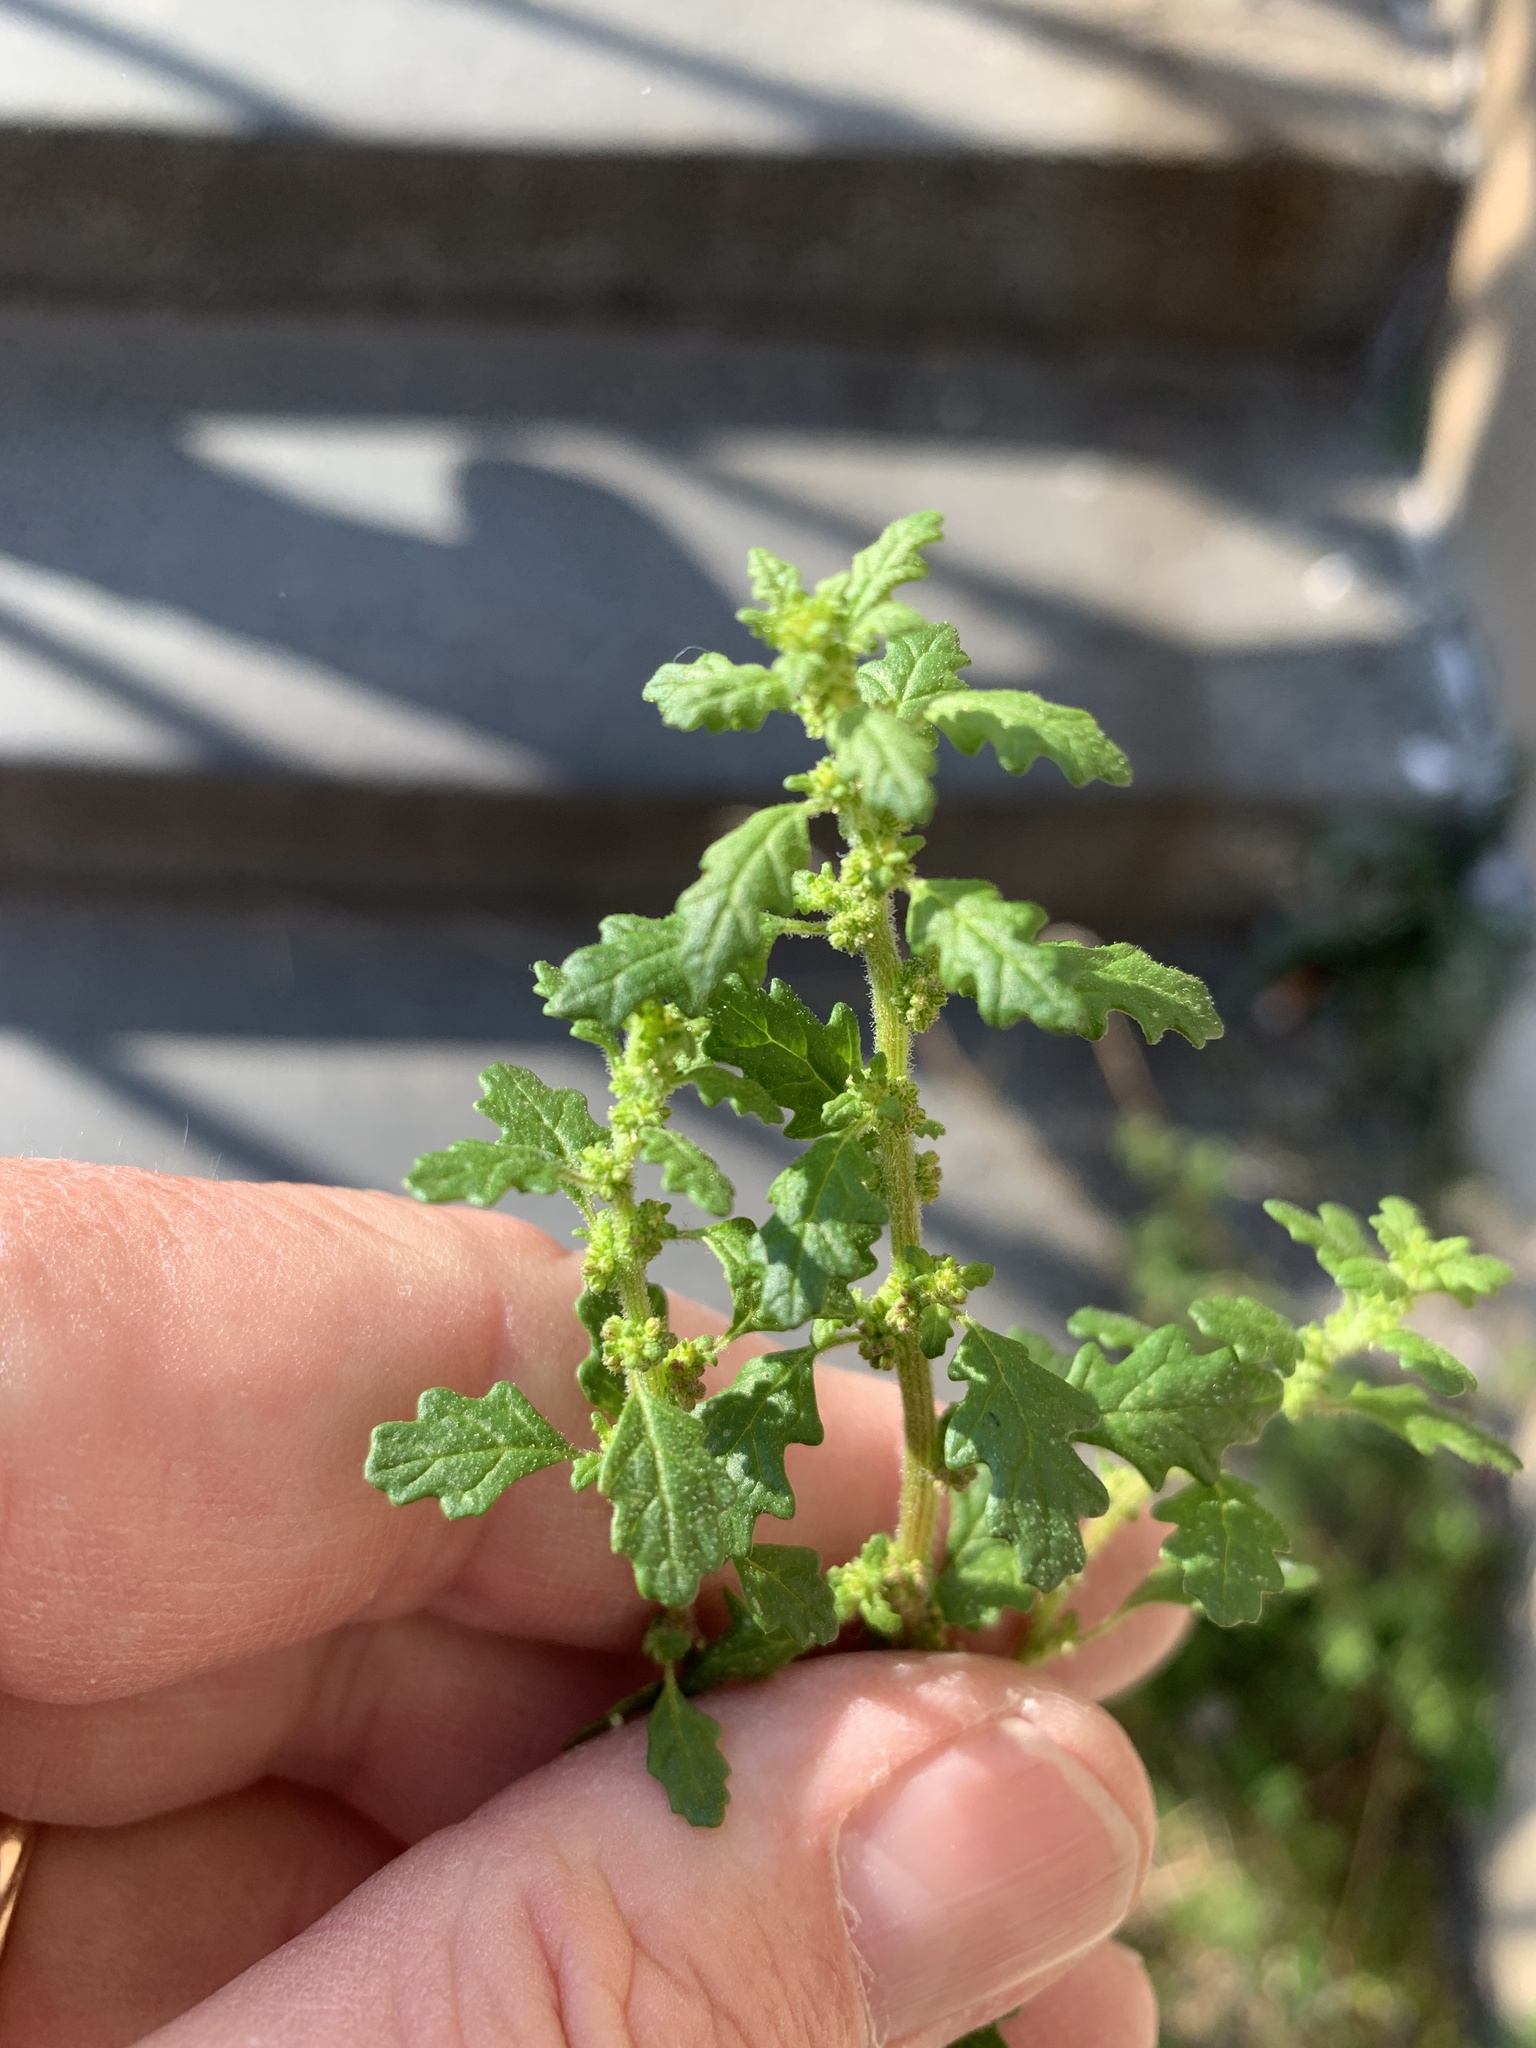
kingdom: Plantae
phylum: Tracheophyta
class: Magnoliopsida
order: Caryophyllales
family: Amaranthaceae
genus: Dysphania
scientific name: Dysphania pumilio
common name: Clammy goosefoot
